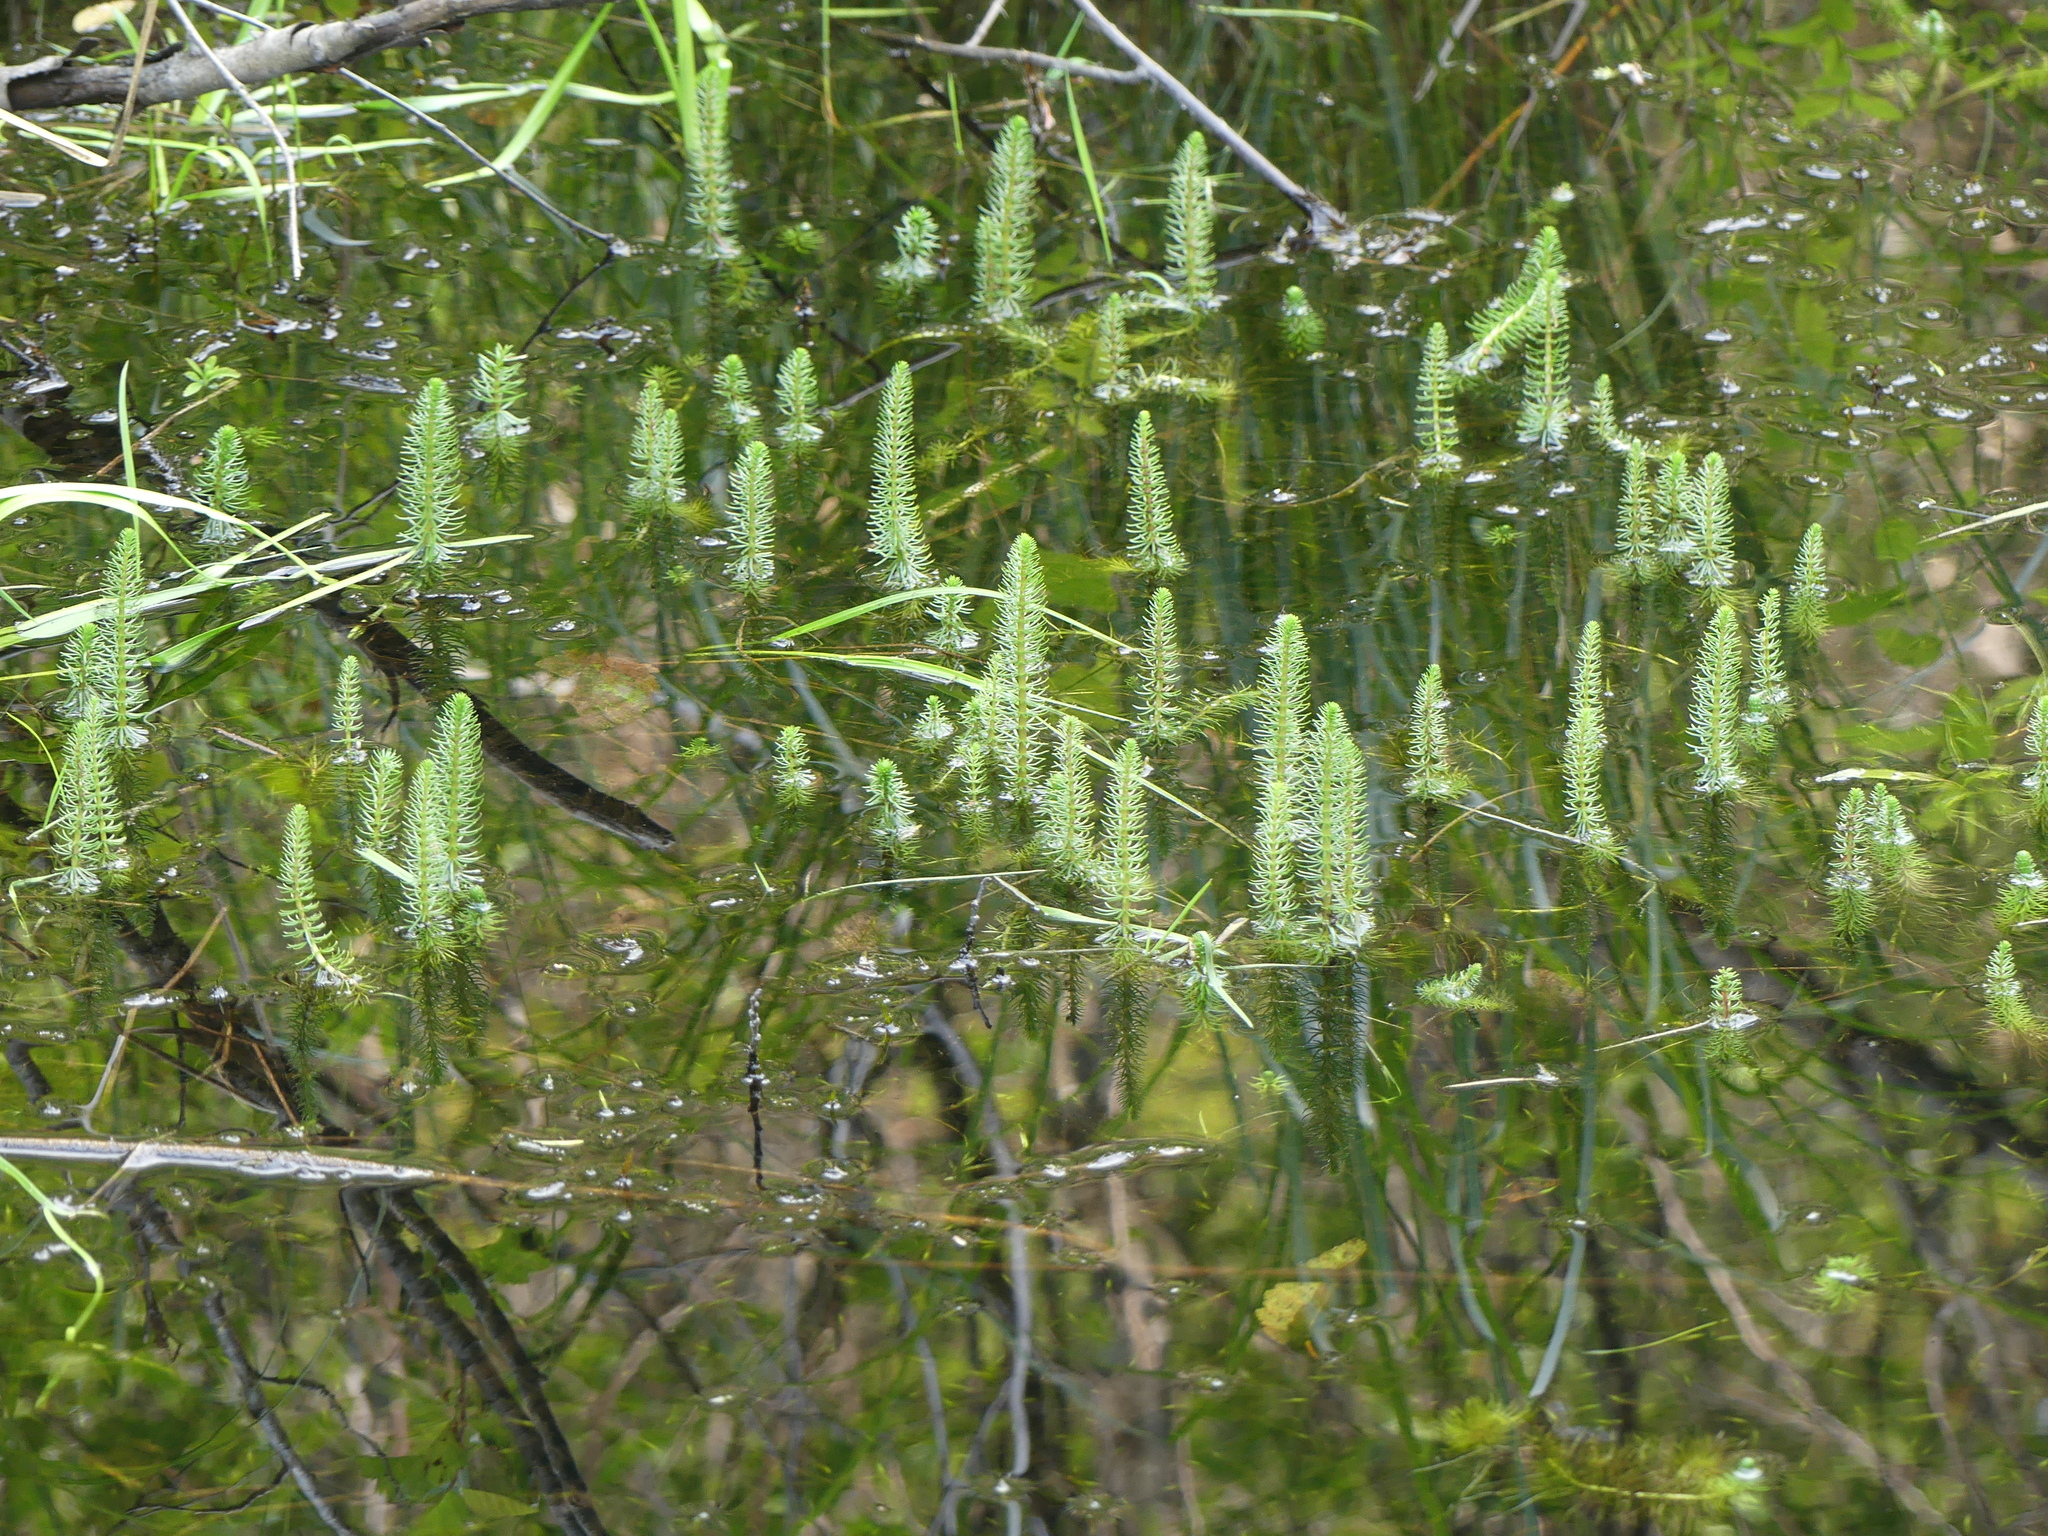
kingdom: Plantae
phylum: Tracheophyta
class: Magnoliopsida
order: Lamiales
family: Plantaginaceae
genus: Hippuris
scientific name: Hippuris vulgaris
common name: Mare's-tail
